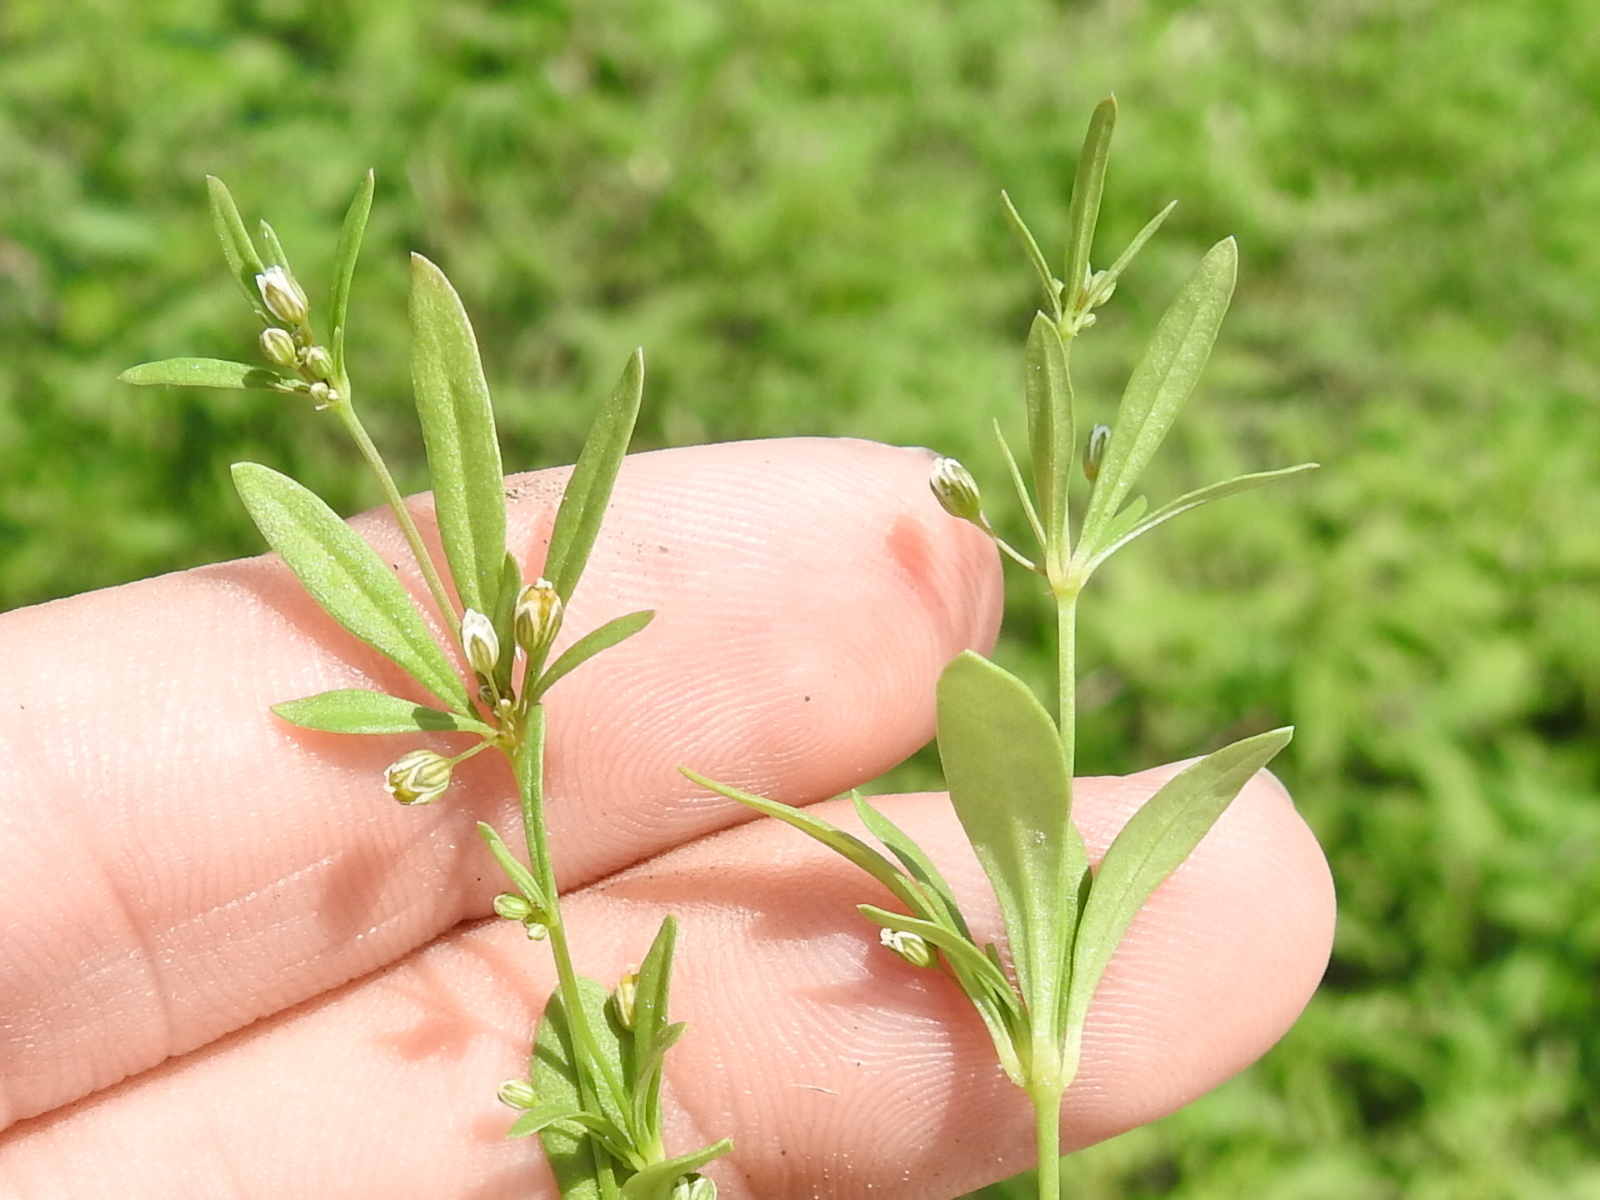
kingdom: Plantae
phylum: Tracheophyta
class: Magnoliopsida
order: Caryophyllales
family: Molluginaceae
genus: Mollugo
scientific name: Mollugo verticillata
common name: Green carpetweed
